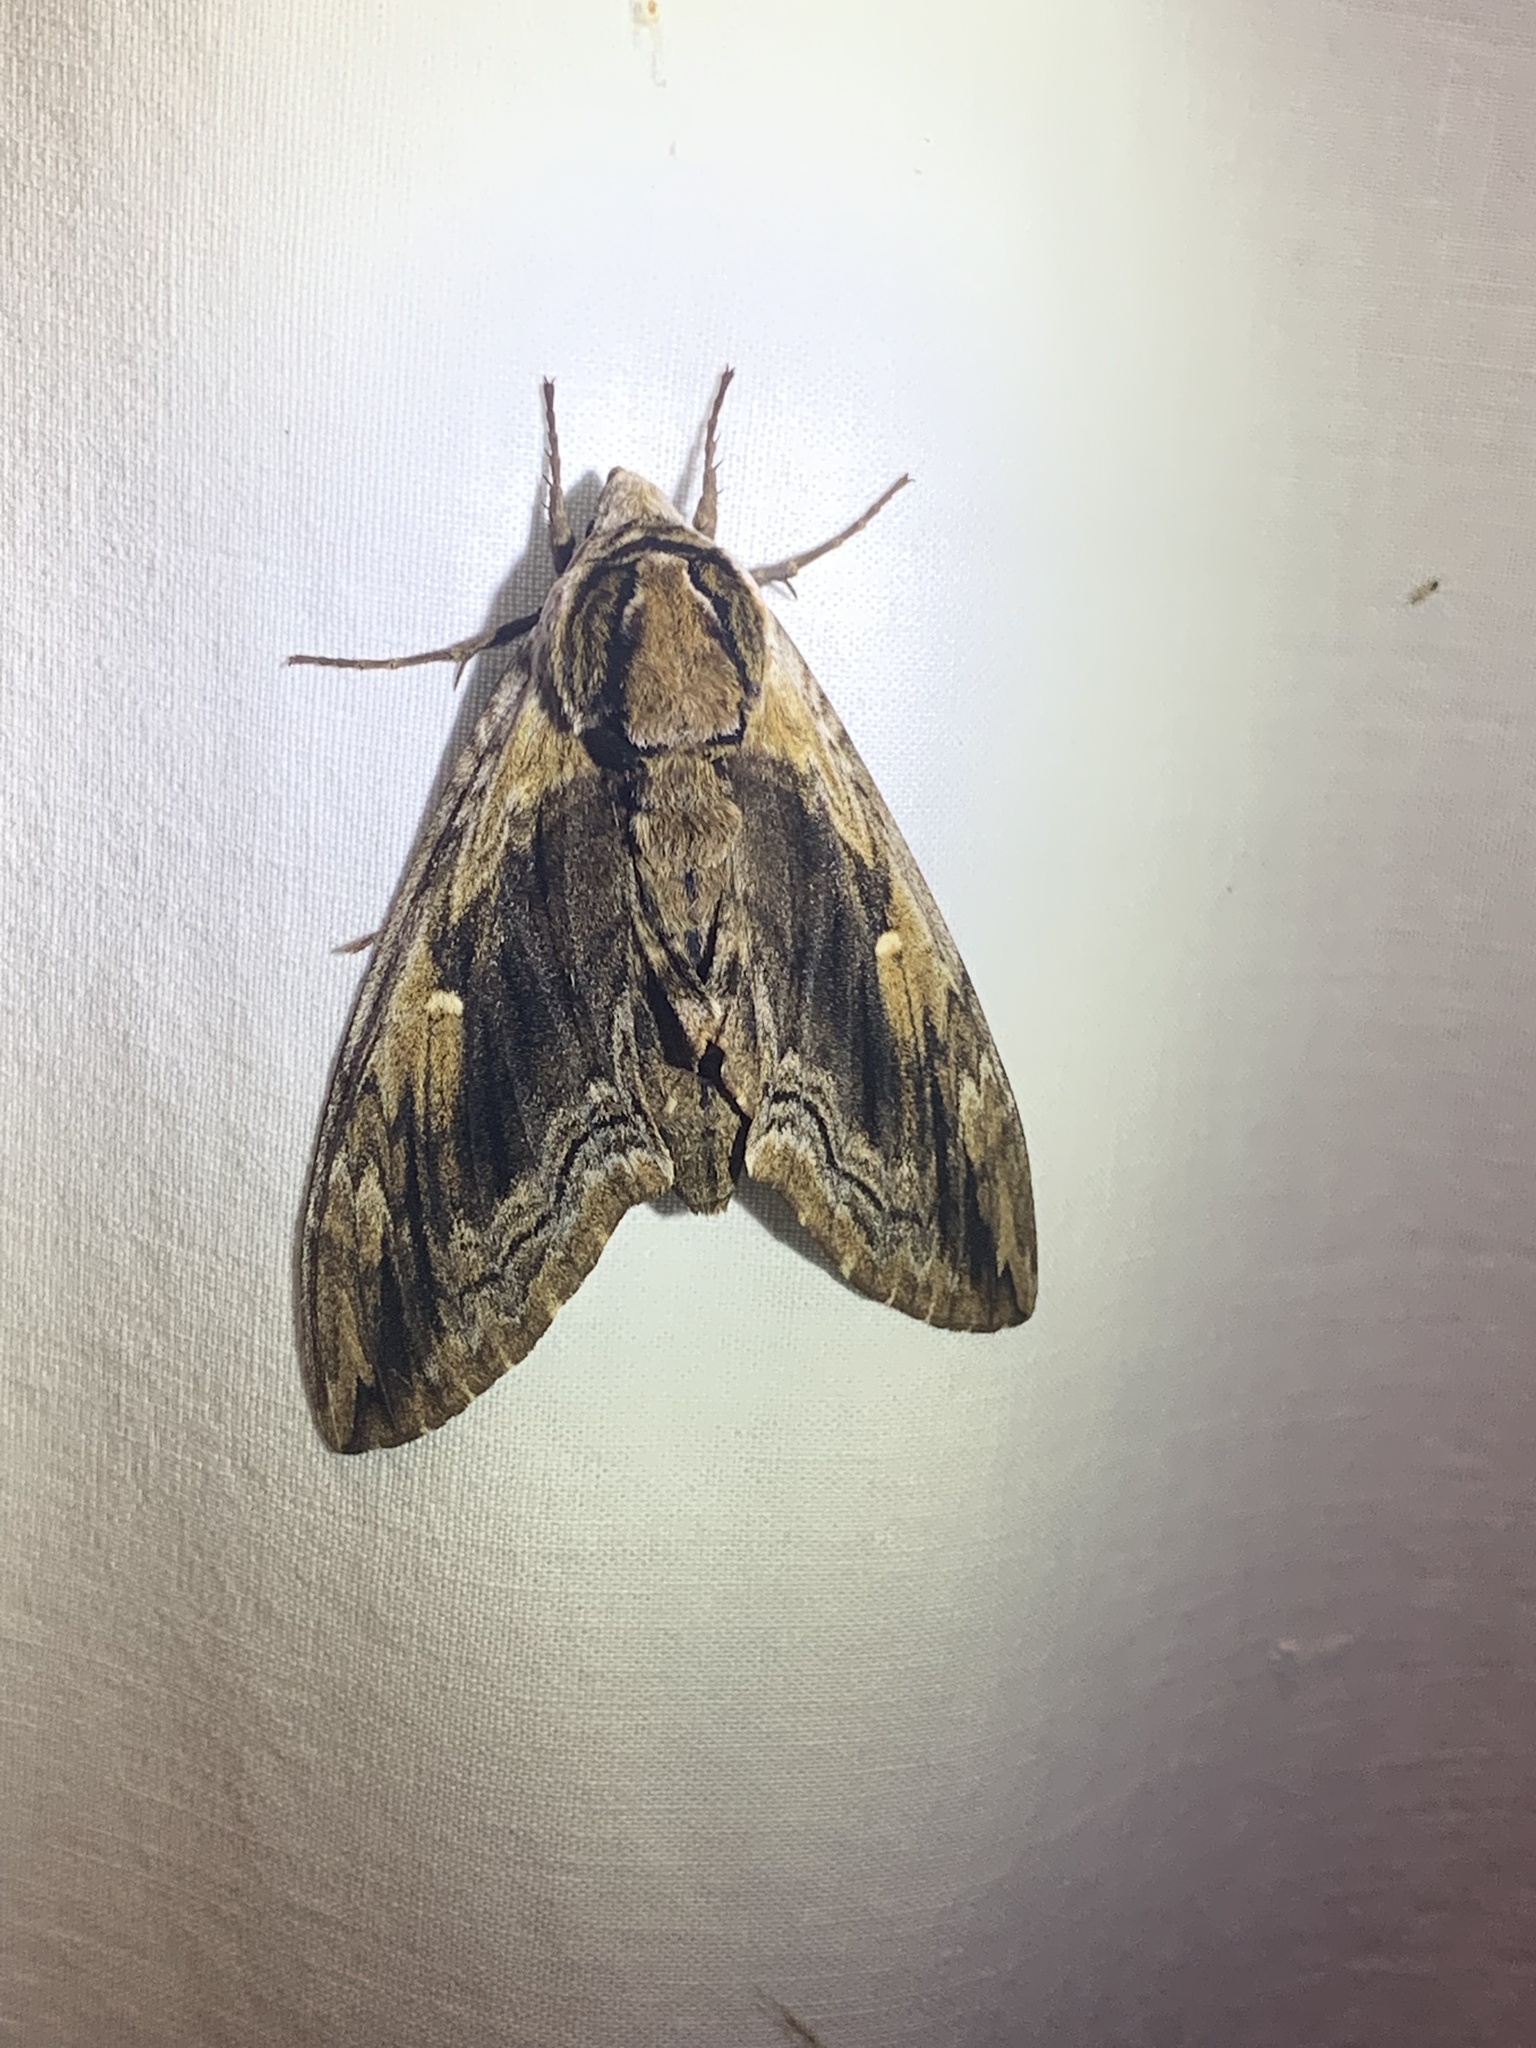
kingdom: Animalia
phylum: Arthropoda
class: Insecta
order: Lepidoptera
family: Sphingidae
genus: Ceratomia
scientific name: Ceratomia amyntor
